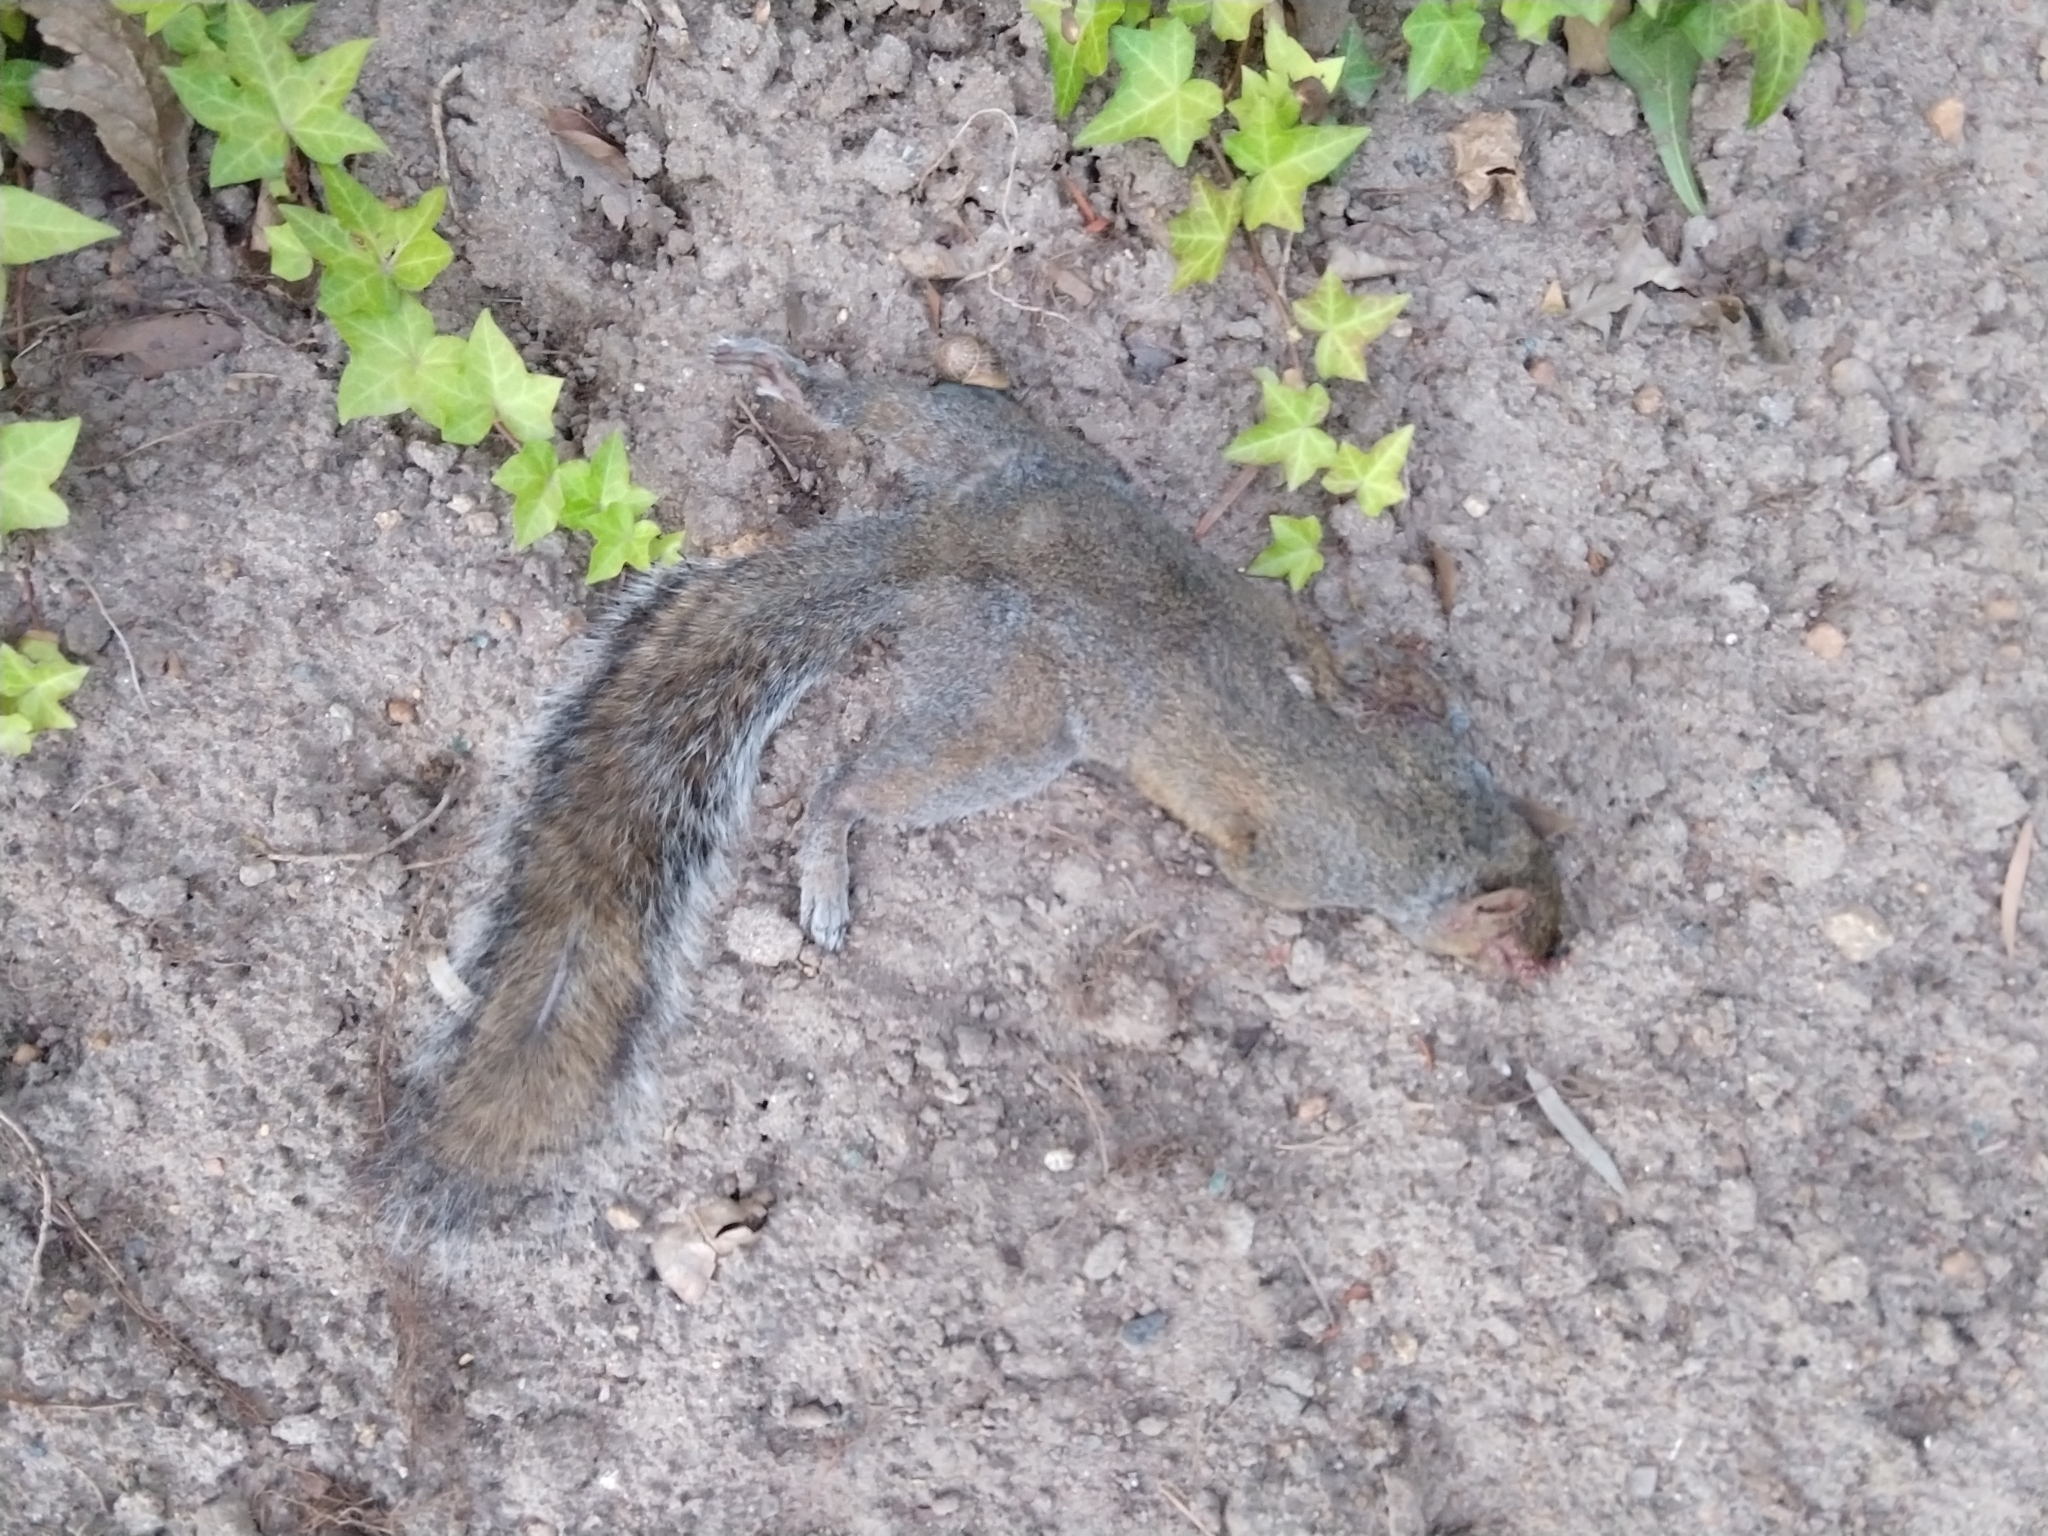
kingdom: Animalia
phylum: Chordata
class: Mammalia
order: Rodentia
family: Sciuridae
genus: Sciurus
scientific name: Sciurus carolinensis
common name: Eastern gray squirrel
